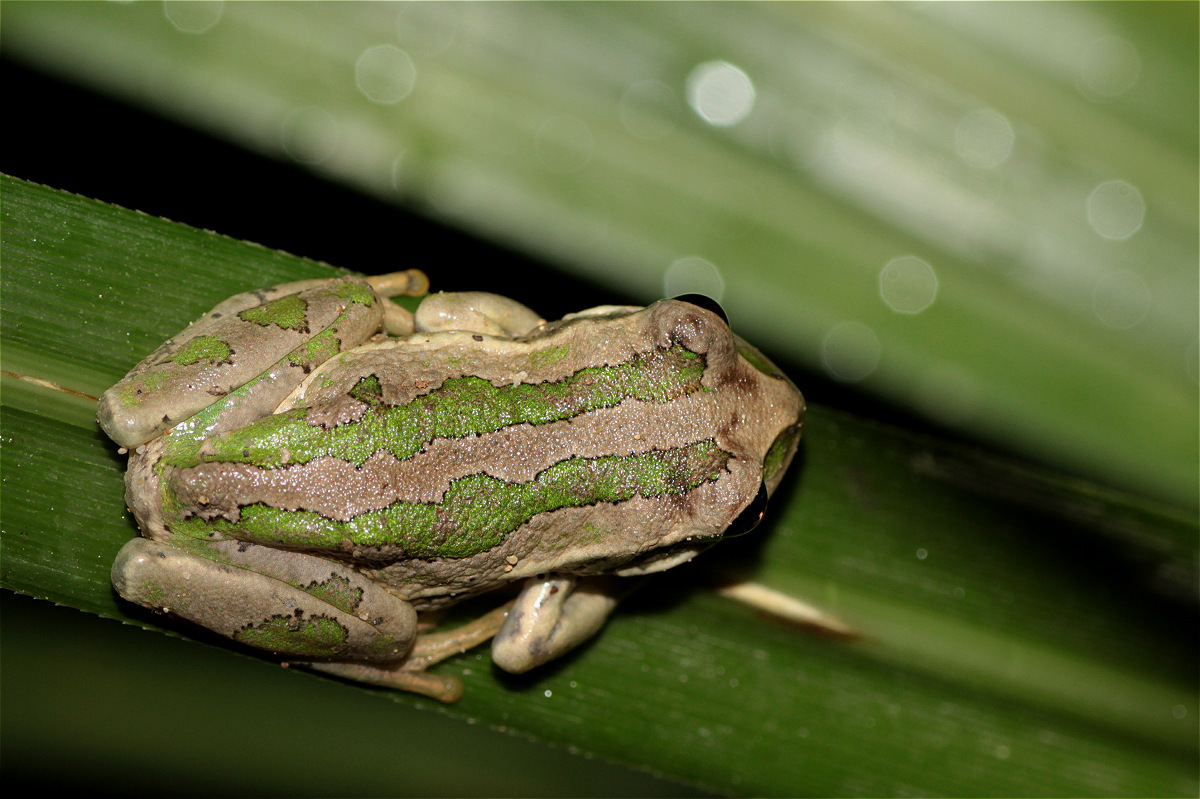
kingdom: Animalia
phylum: Chordata
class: Amphibia
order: Anura
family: Hemiphractidae
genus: Gastrotheca
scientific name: Gastrotheca cuencana
